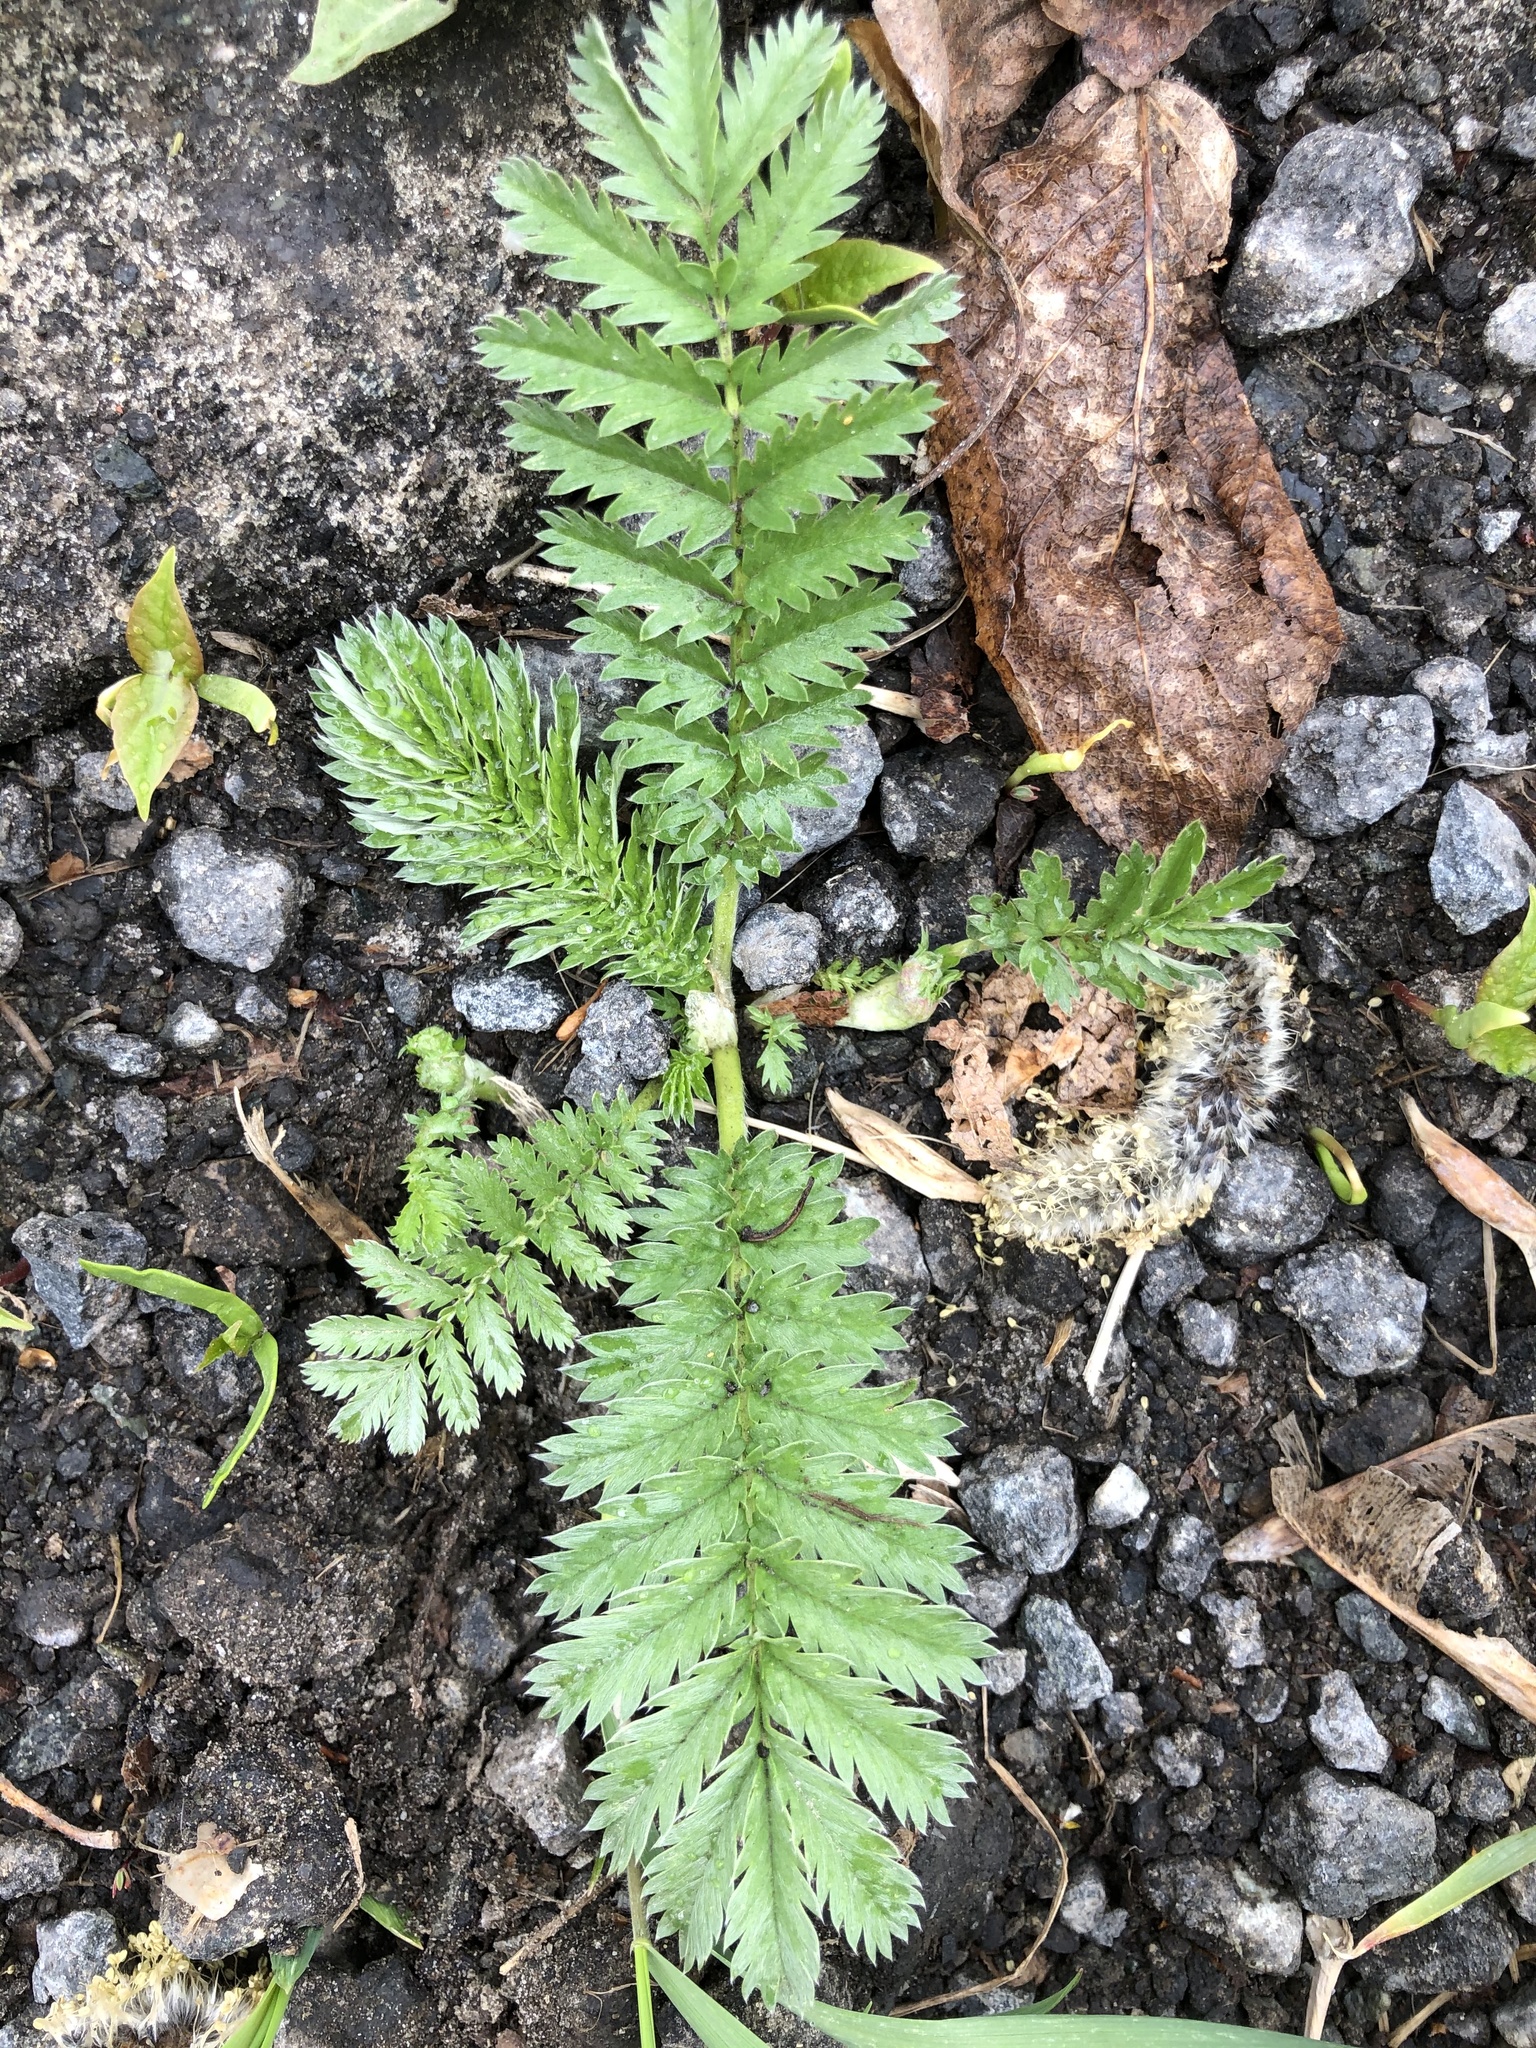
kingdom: Plantae
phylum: Tracheophyta
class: Magnoliopsida
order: Rosales
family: Rosaceae
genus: Argentina
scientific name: Argentina anserina
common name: Common silverweed
